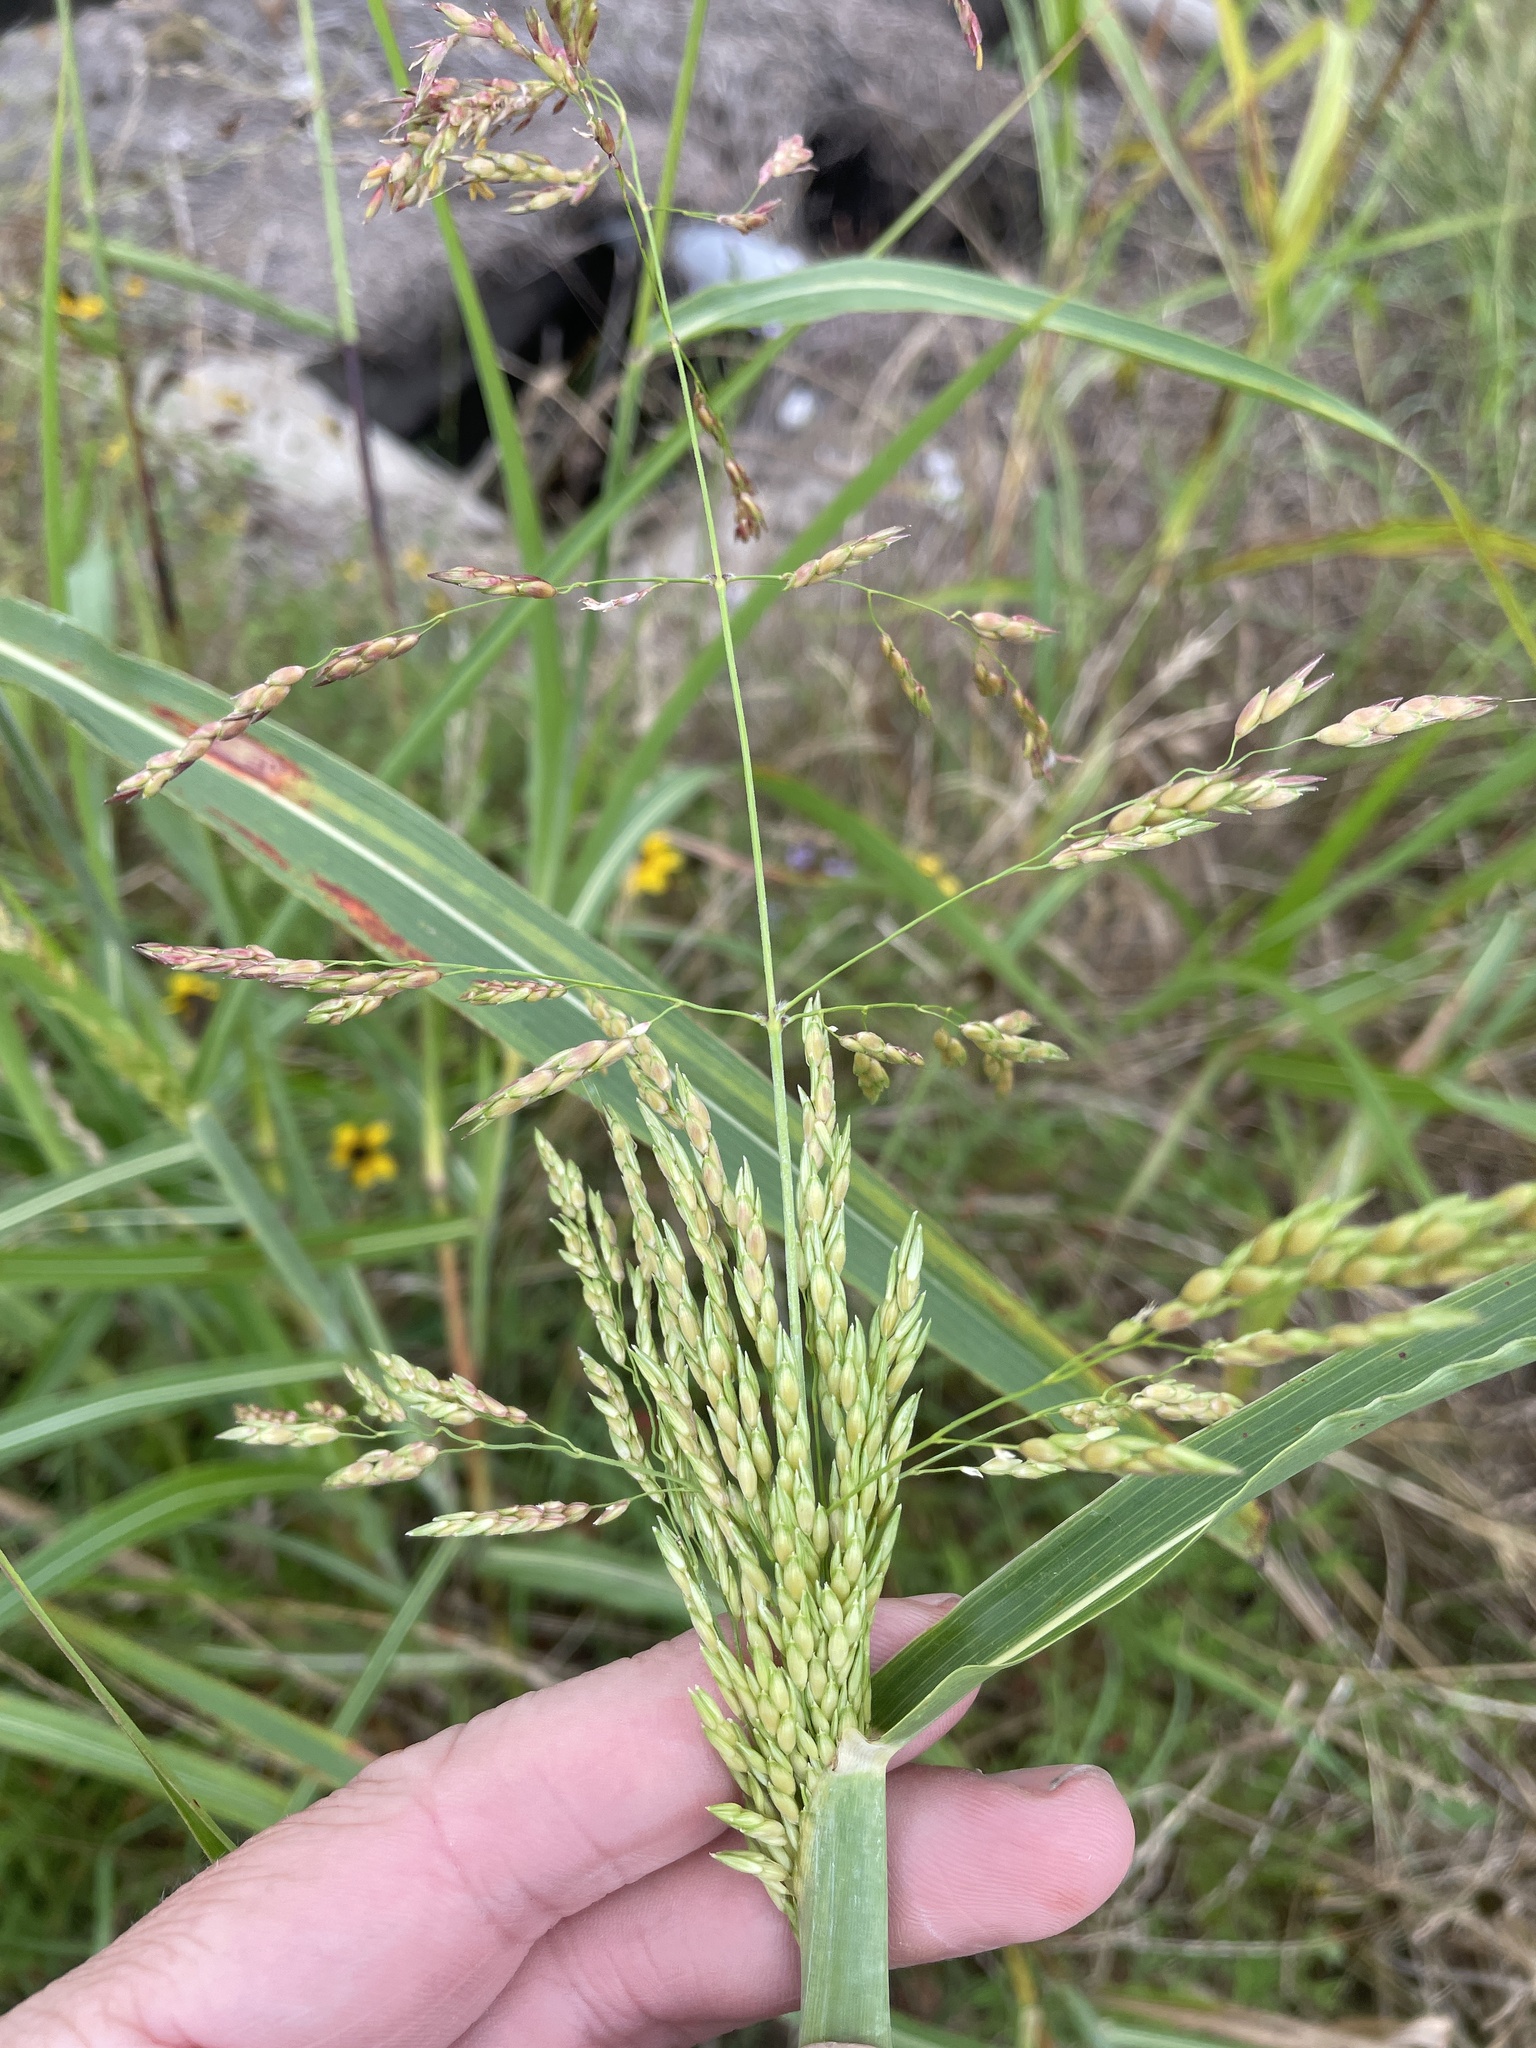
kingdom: Plantae
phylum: Tracheophyta
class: Liliopsida
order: Poales
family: Poaceae
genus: Sorghum
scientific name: Sorghum halepense
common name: Johnson-grass
